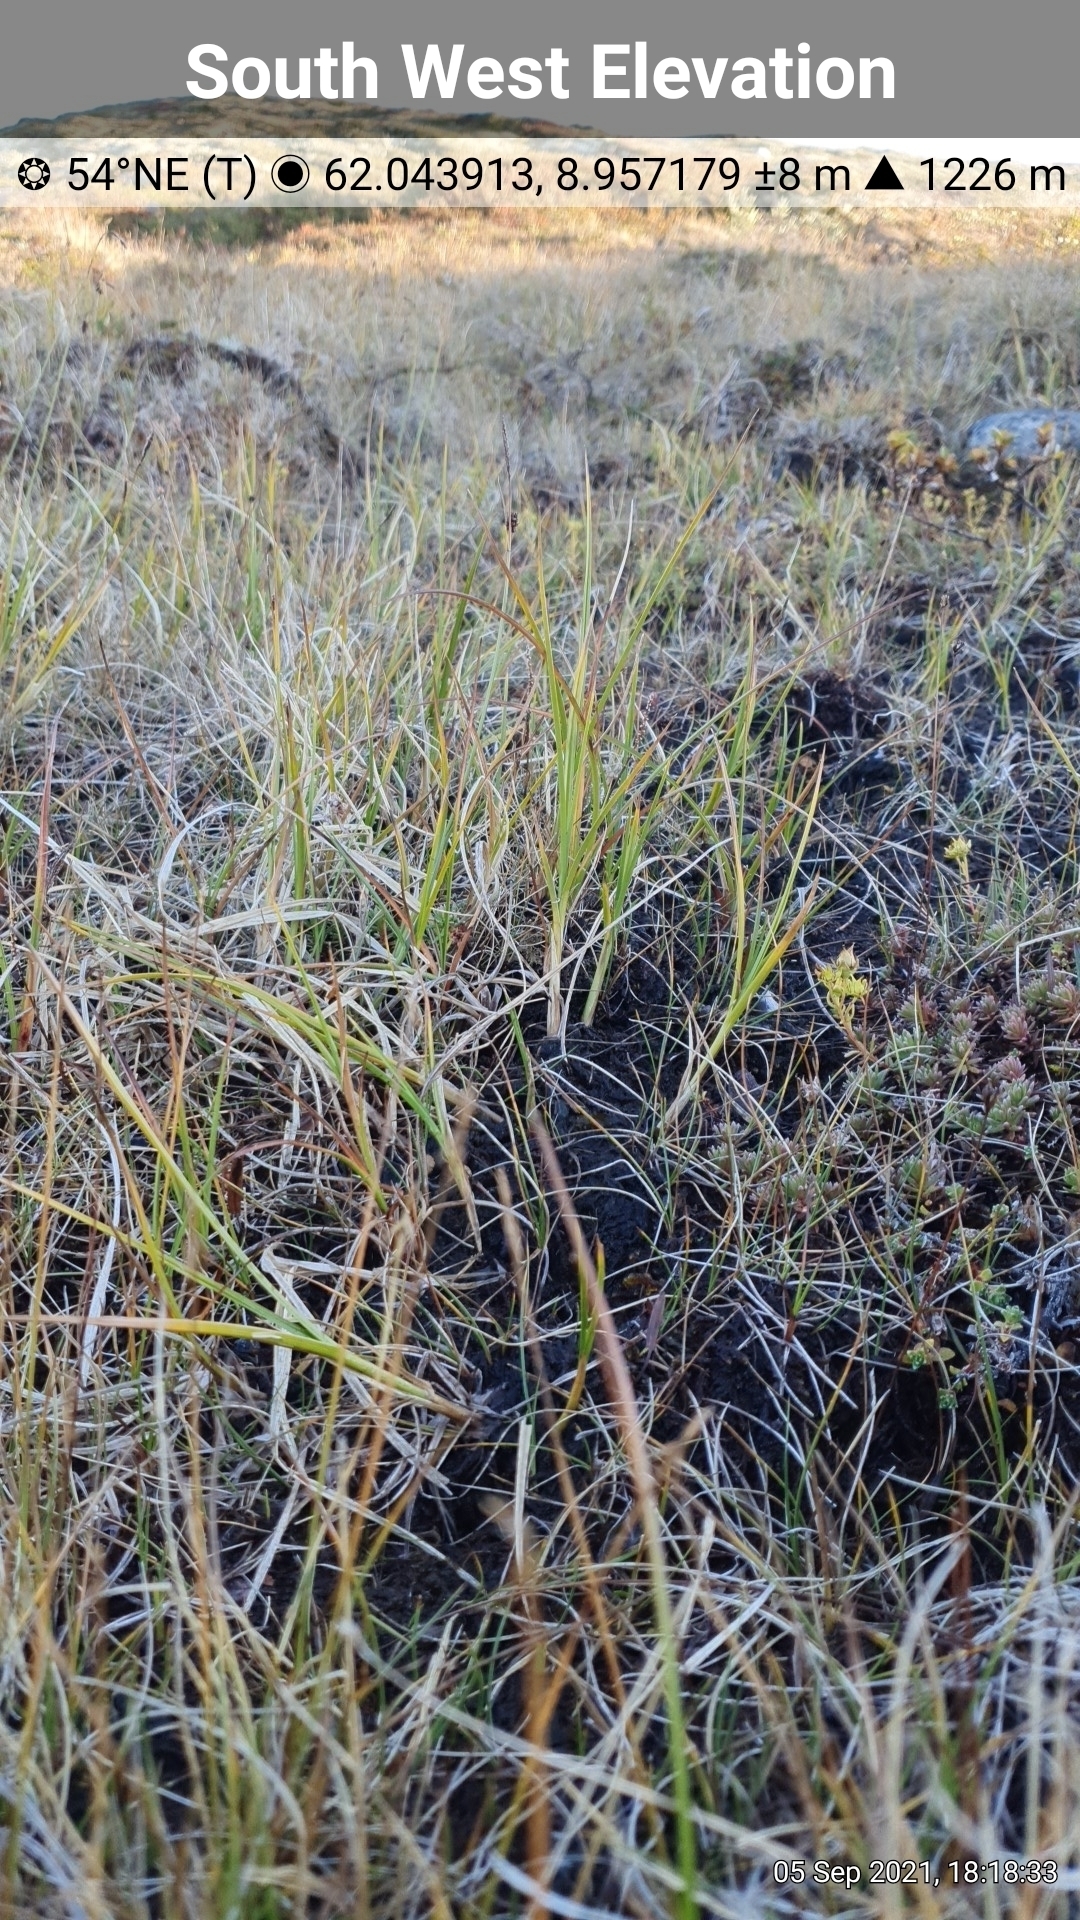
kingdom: Plantae
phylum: Tracheophyta
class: Liliopsida
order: Poales
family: Cyperaceae
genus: Carex
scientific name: Carex microglochin
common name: Bristle sedge
